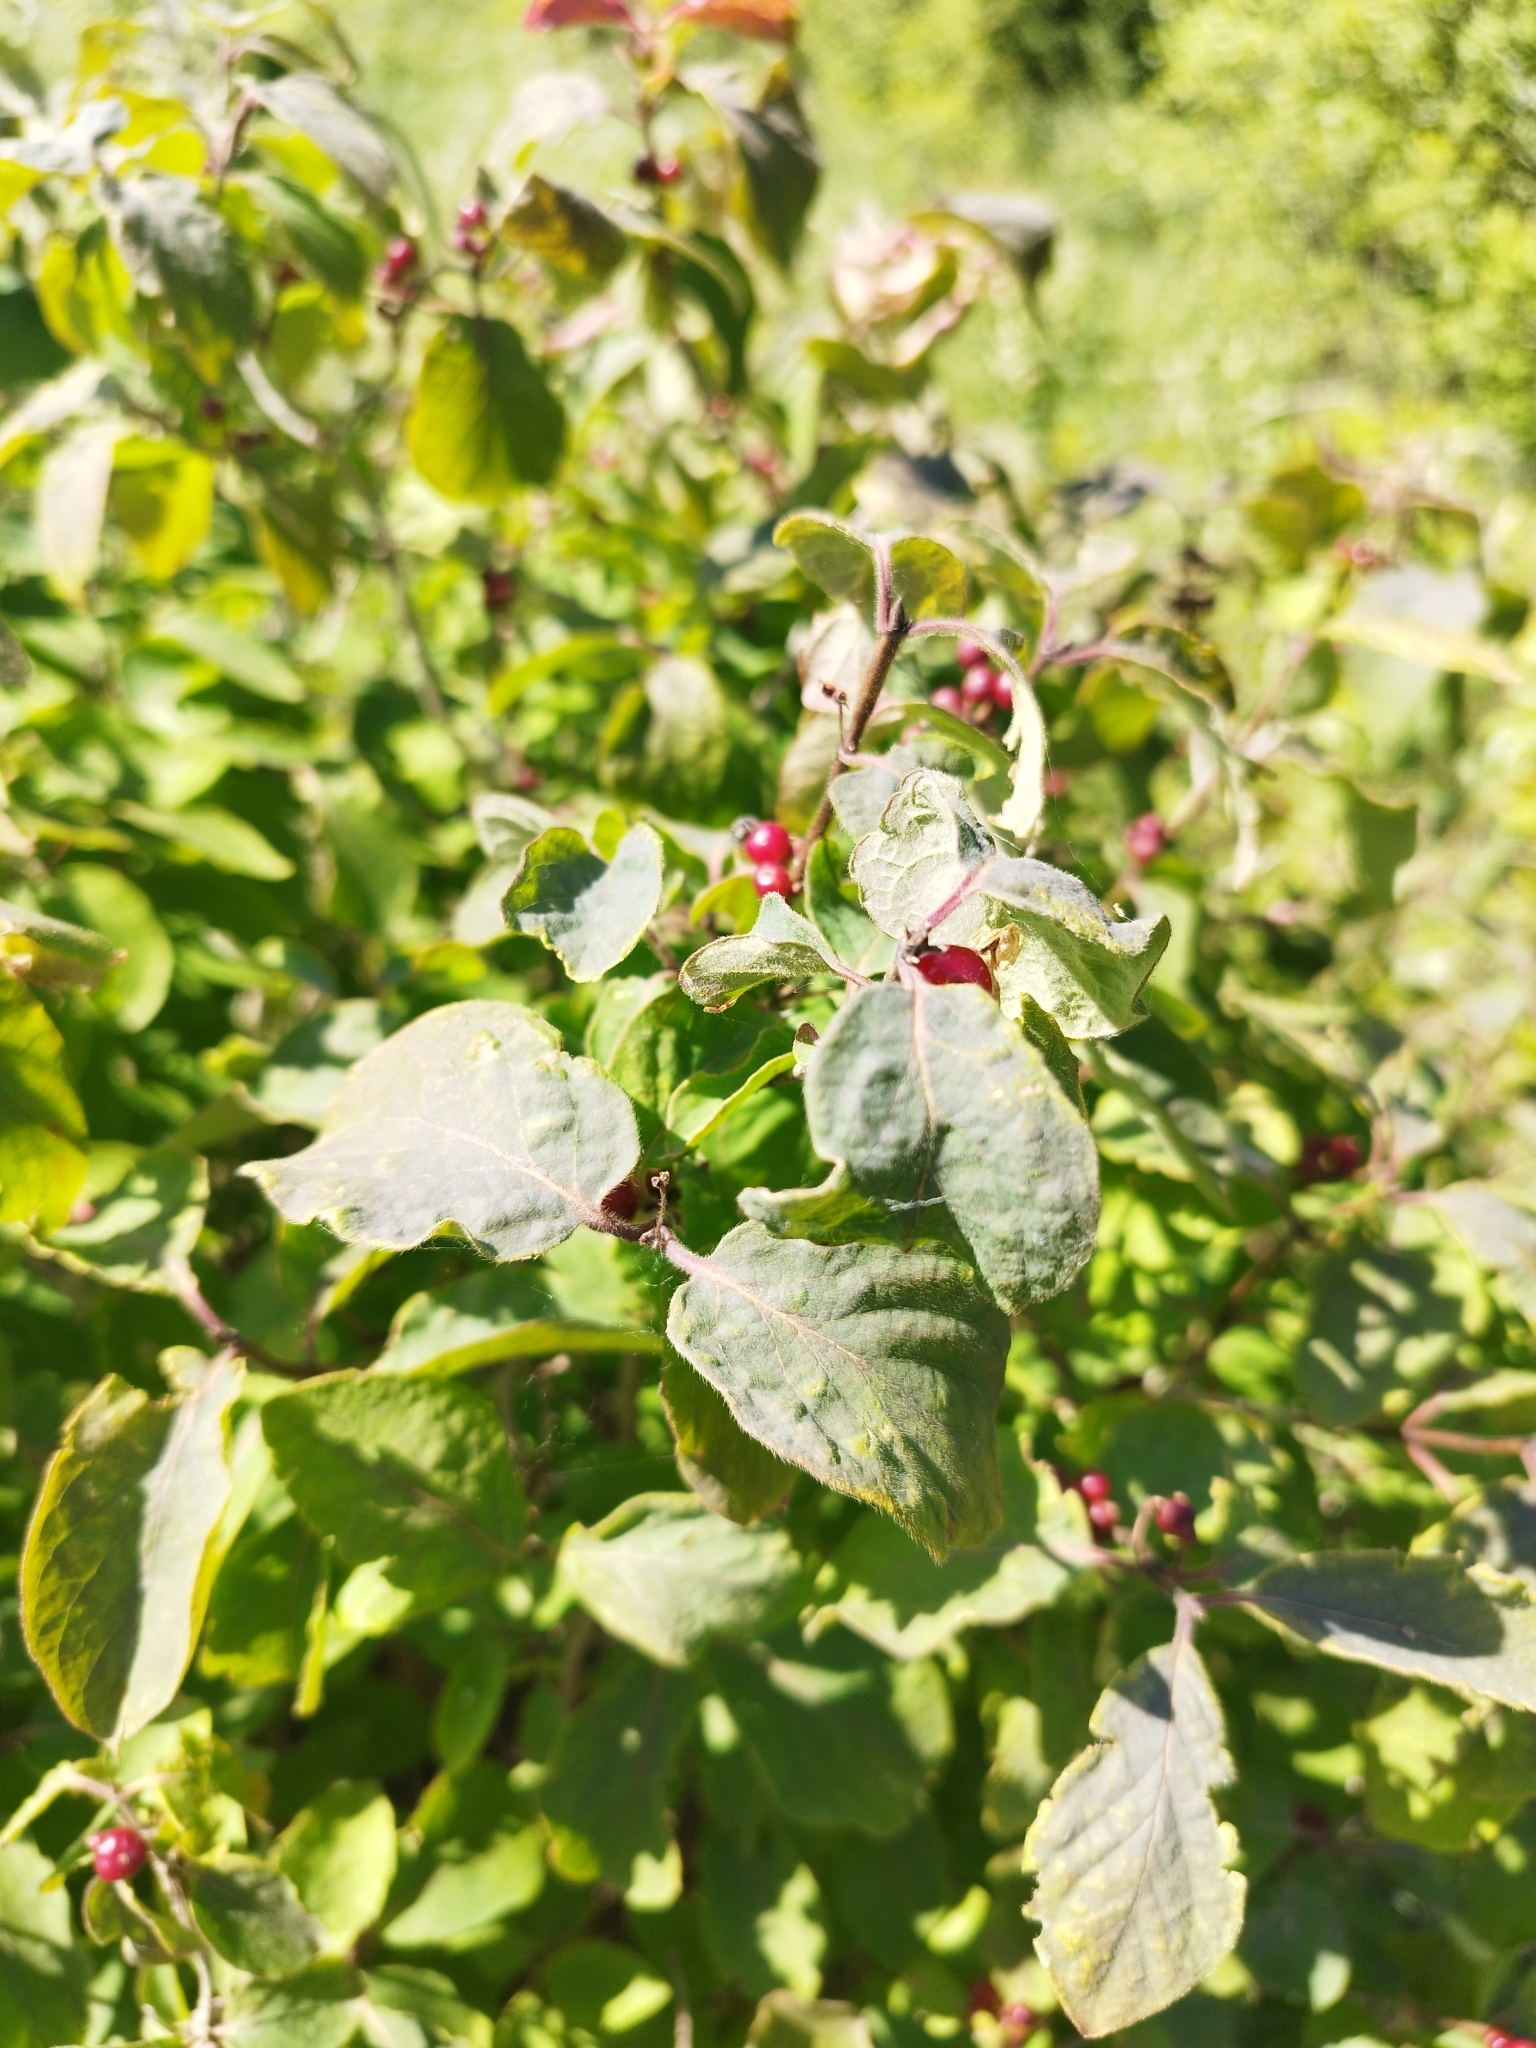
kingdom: Plantae
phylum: Tracheophyta
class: Magnoliopsida
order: Dipsacales
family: Caprifoliaceae
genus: Lonicera
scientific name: Lonicera xylosteum
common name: Fly honeysuckle
